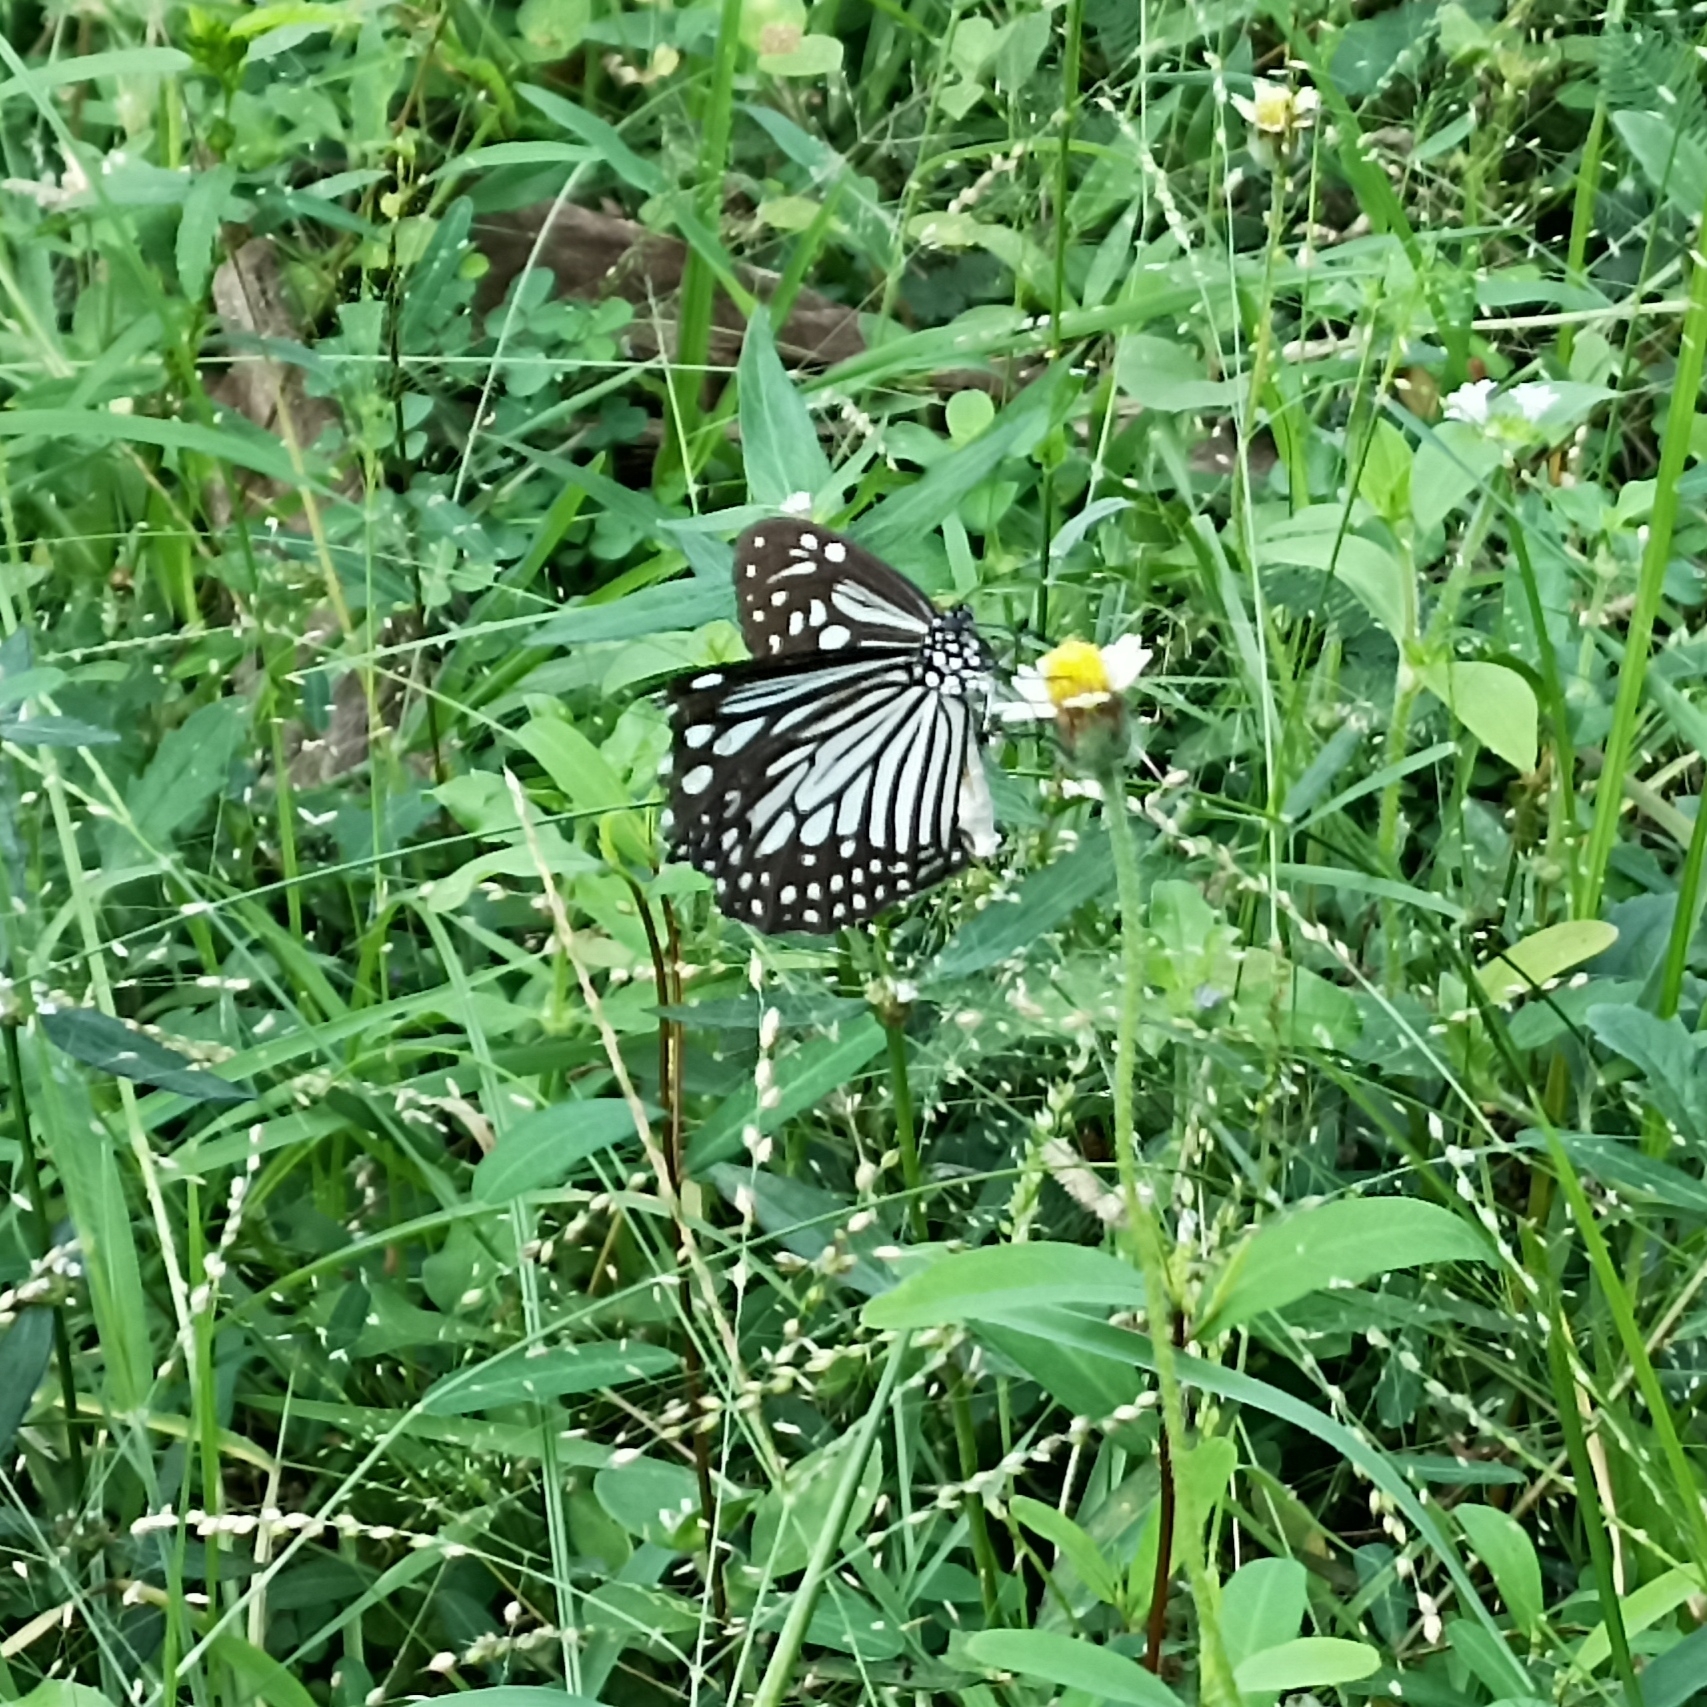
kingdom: Animalia
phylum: Arthropoda
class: Insecta
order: Lepidoptera
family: Nymphalidae
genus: Parantica
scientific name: Parantica aglea
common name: Glassy tiger
